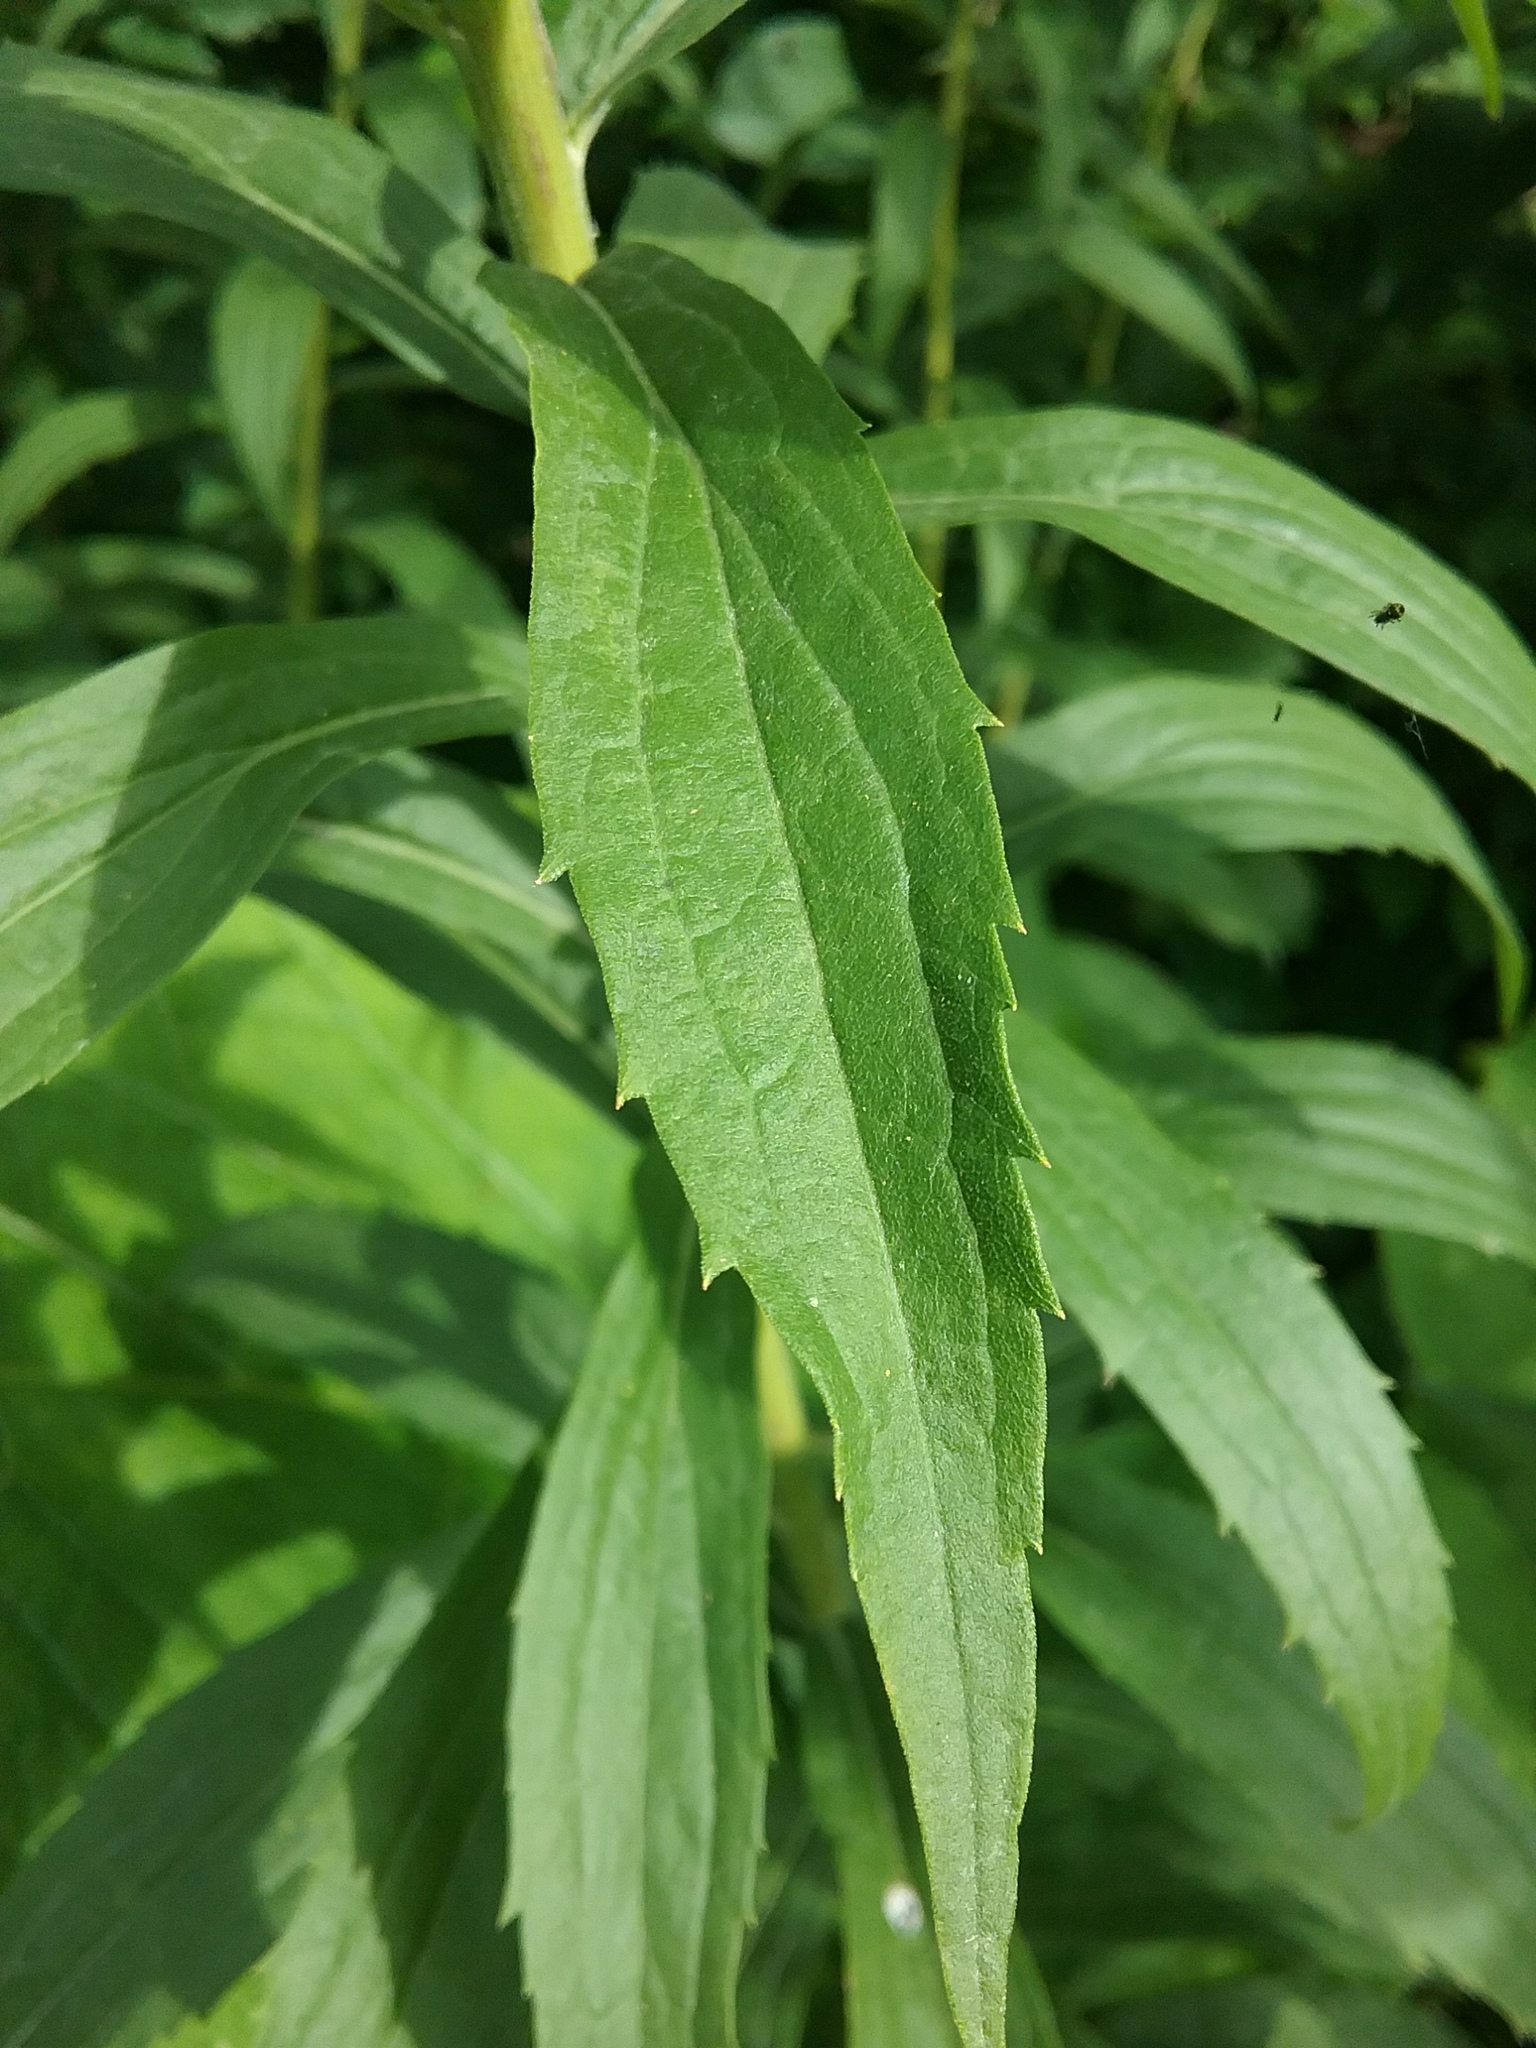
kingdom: Plantae
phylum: Tracheophyta
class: Magnoliopsida
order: Asterales
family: Asteraceae
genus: Solidago
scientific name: Solidago altissima
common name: Late goldenrod
